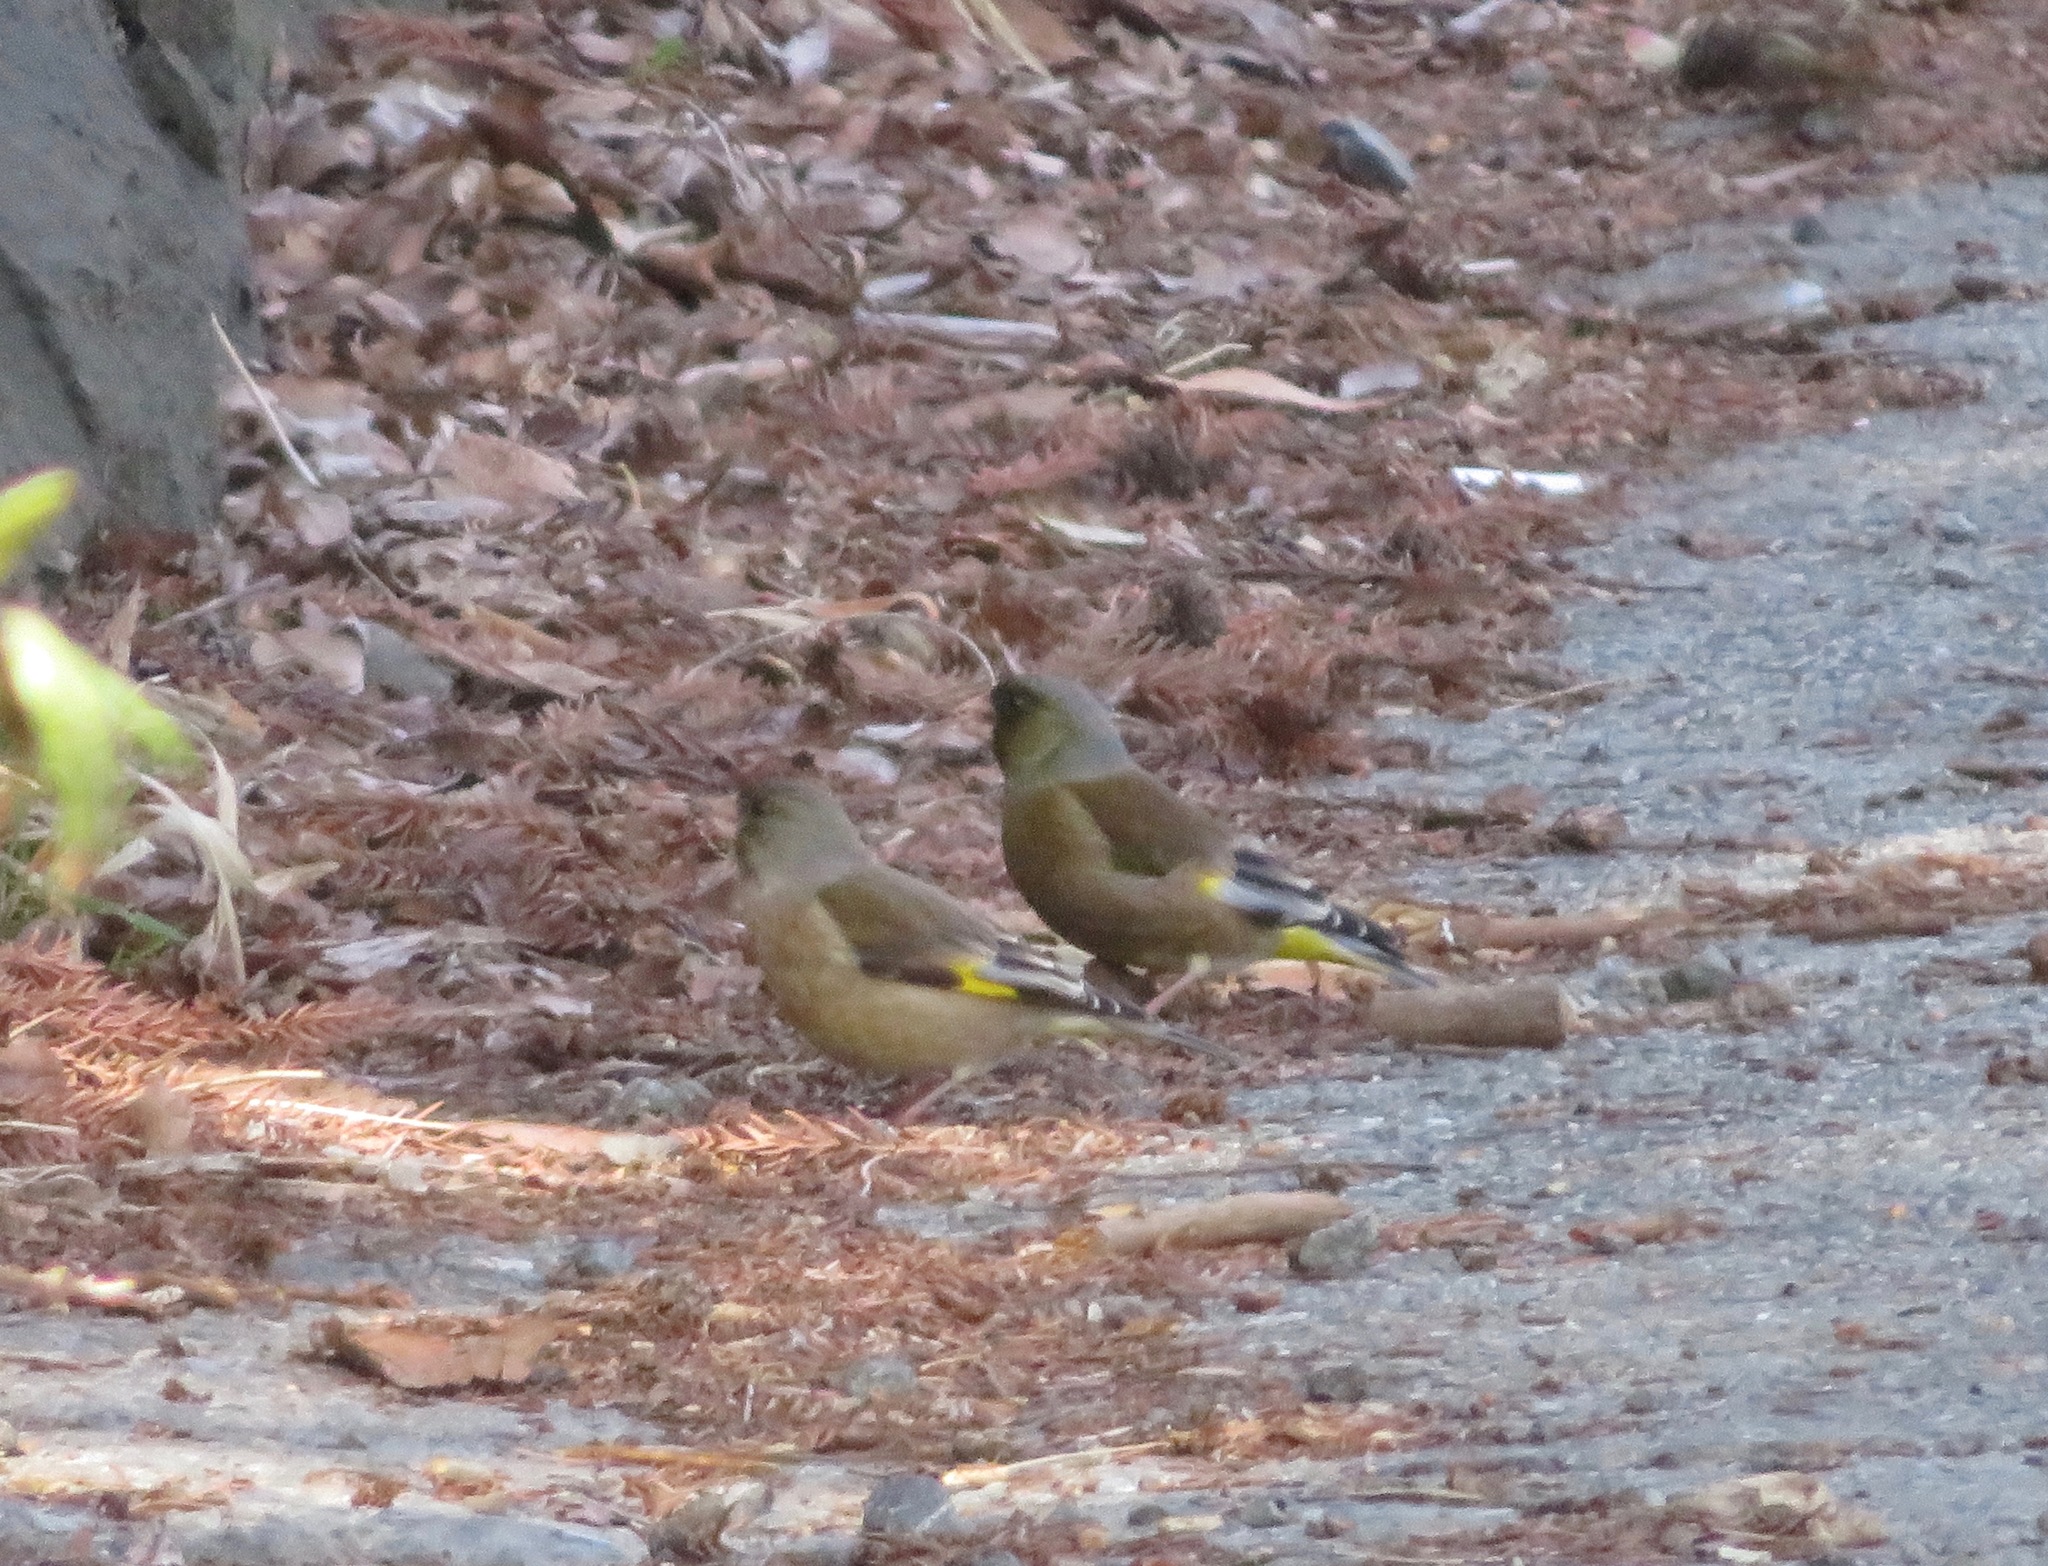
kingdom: Plantae
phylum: Tracheophyta
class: Liliopsida
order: Poales
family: Poaceae
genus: Chloris
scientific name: Chloris sinica
